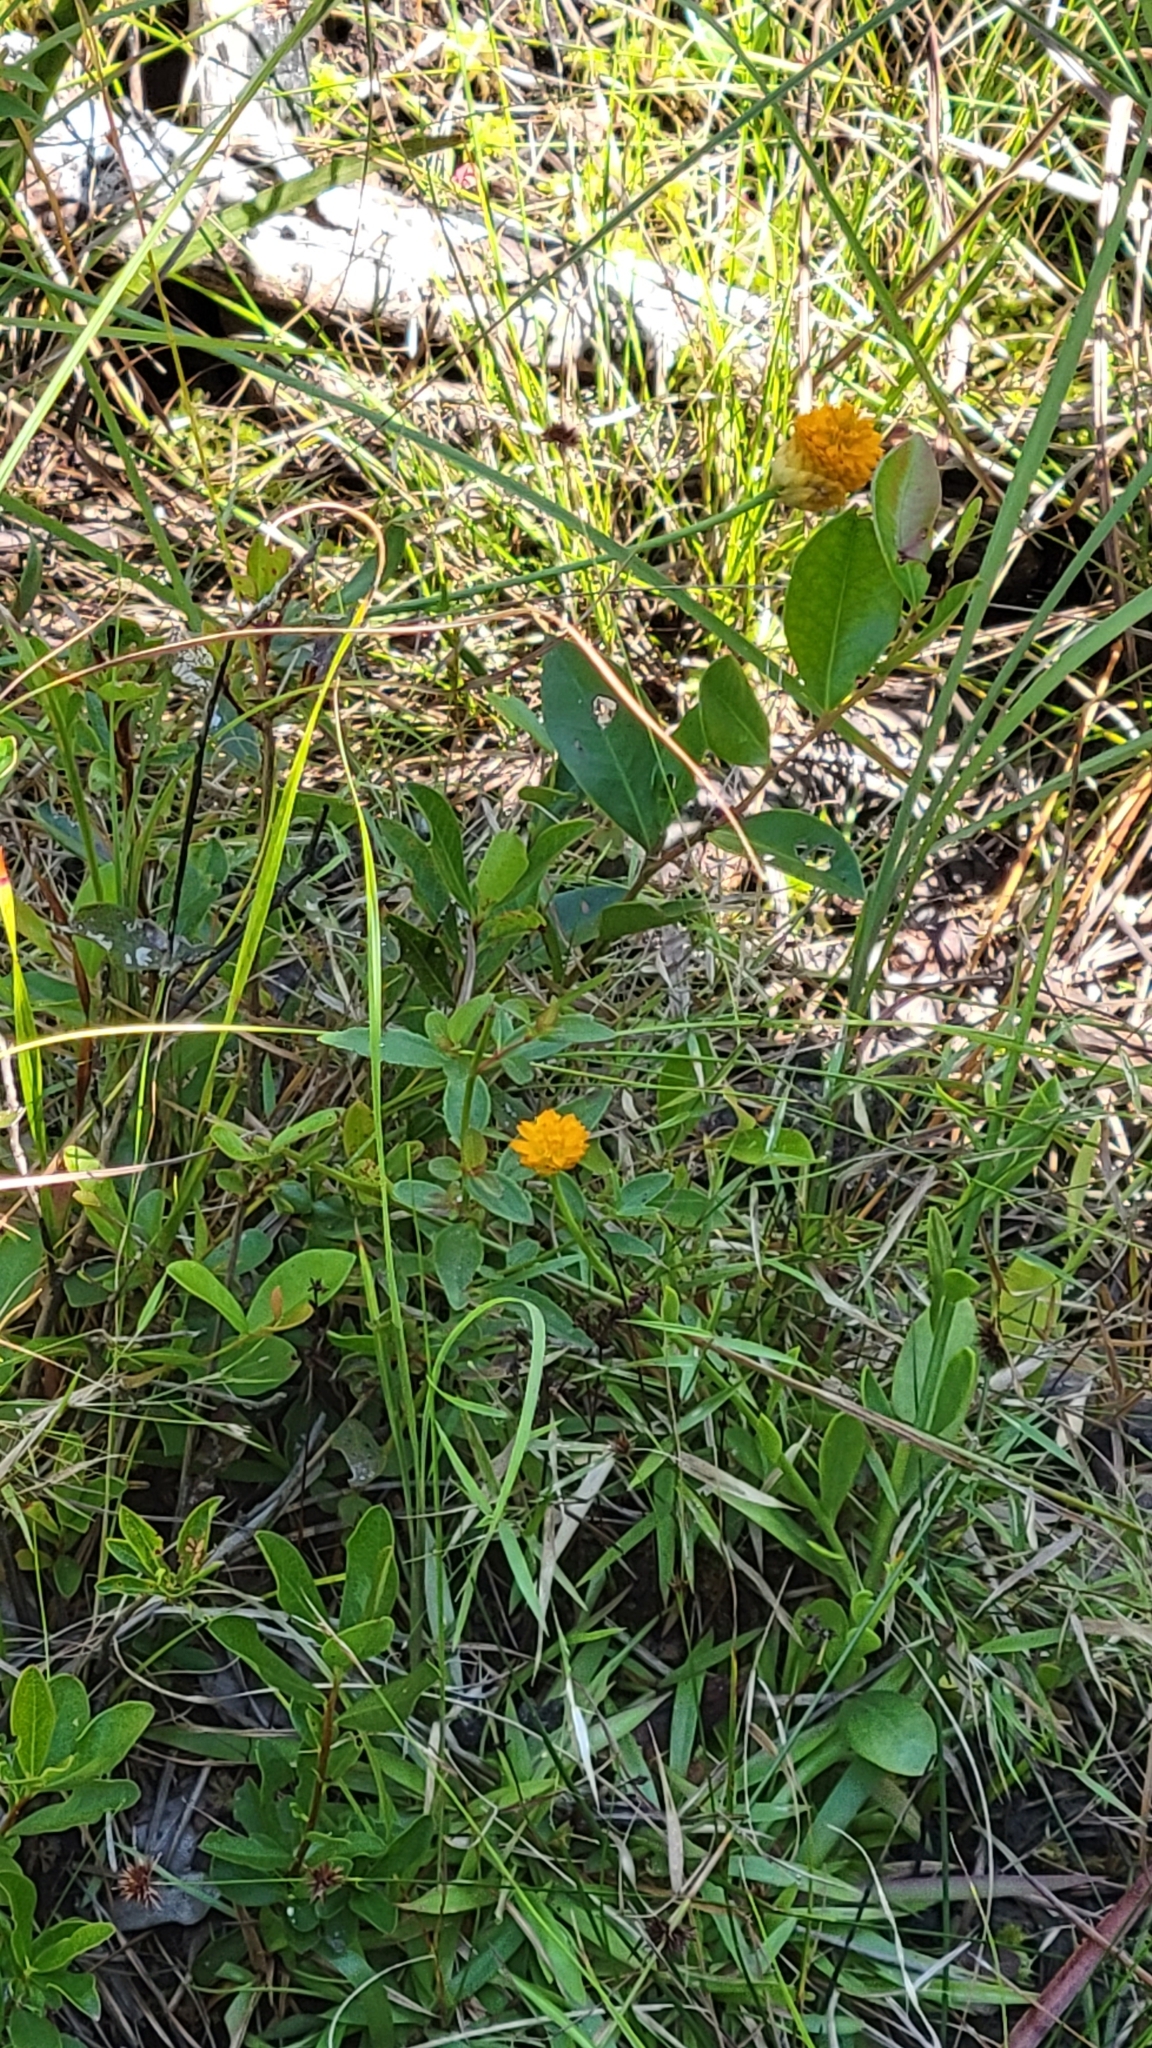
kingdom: Plantae
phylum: Tracheophyta
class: Magnoliopsida
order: Fabales
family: Polygalaceae
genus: Polygala
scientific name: Polygala lutea
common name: Orange milkwort
